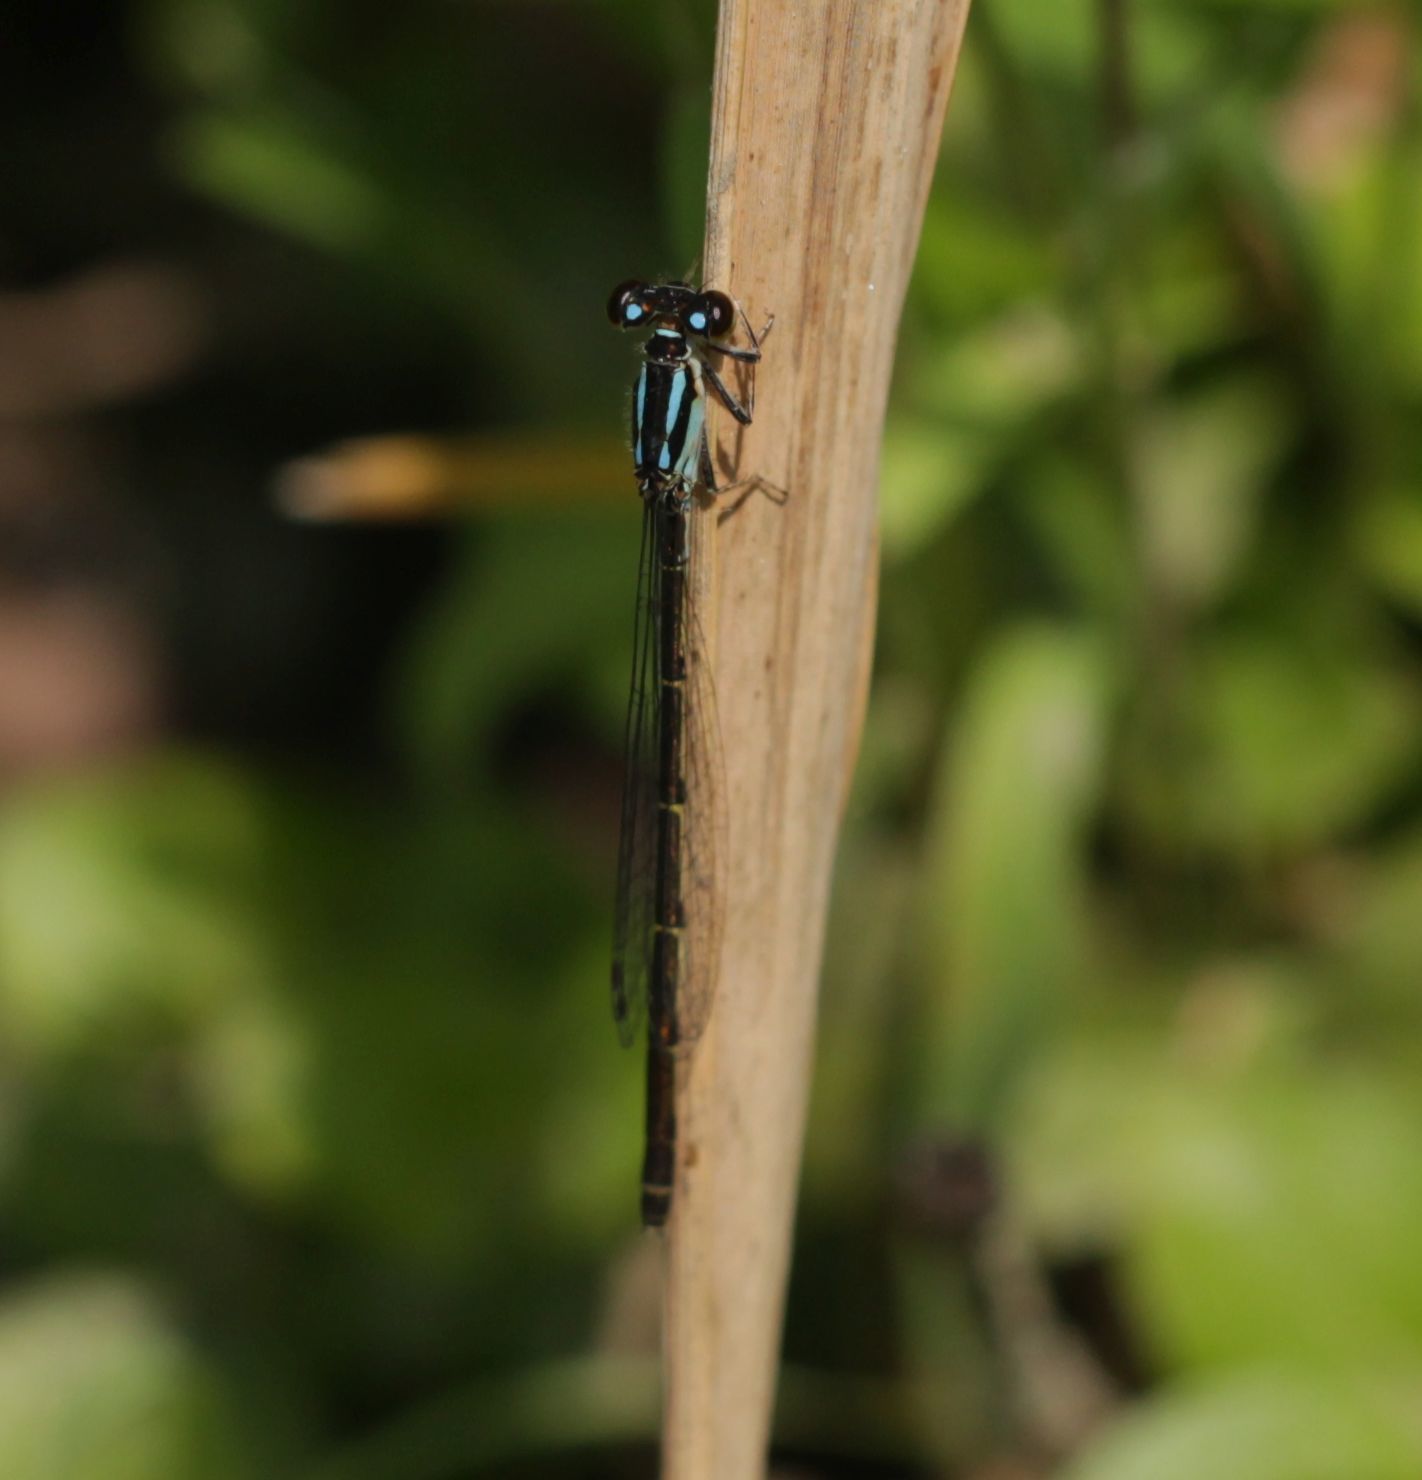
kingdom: Animalia
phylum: Arthropoda
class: Insecta
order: Odonata
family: Coenagrionidae
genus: Ischnura
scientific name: Ischnura posita
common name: Fragile forktail
